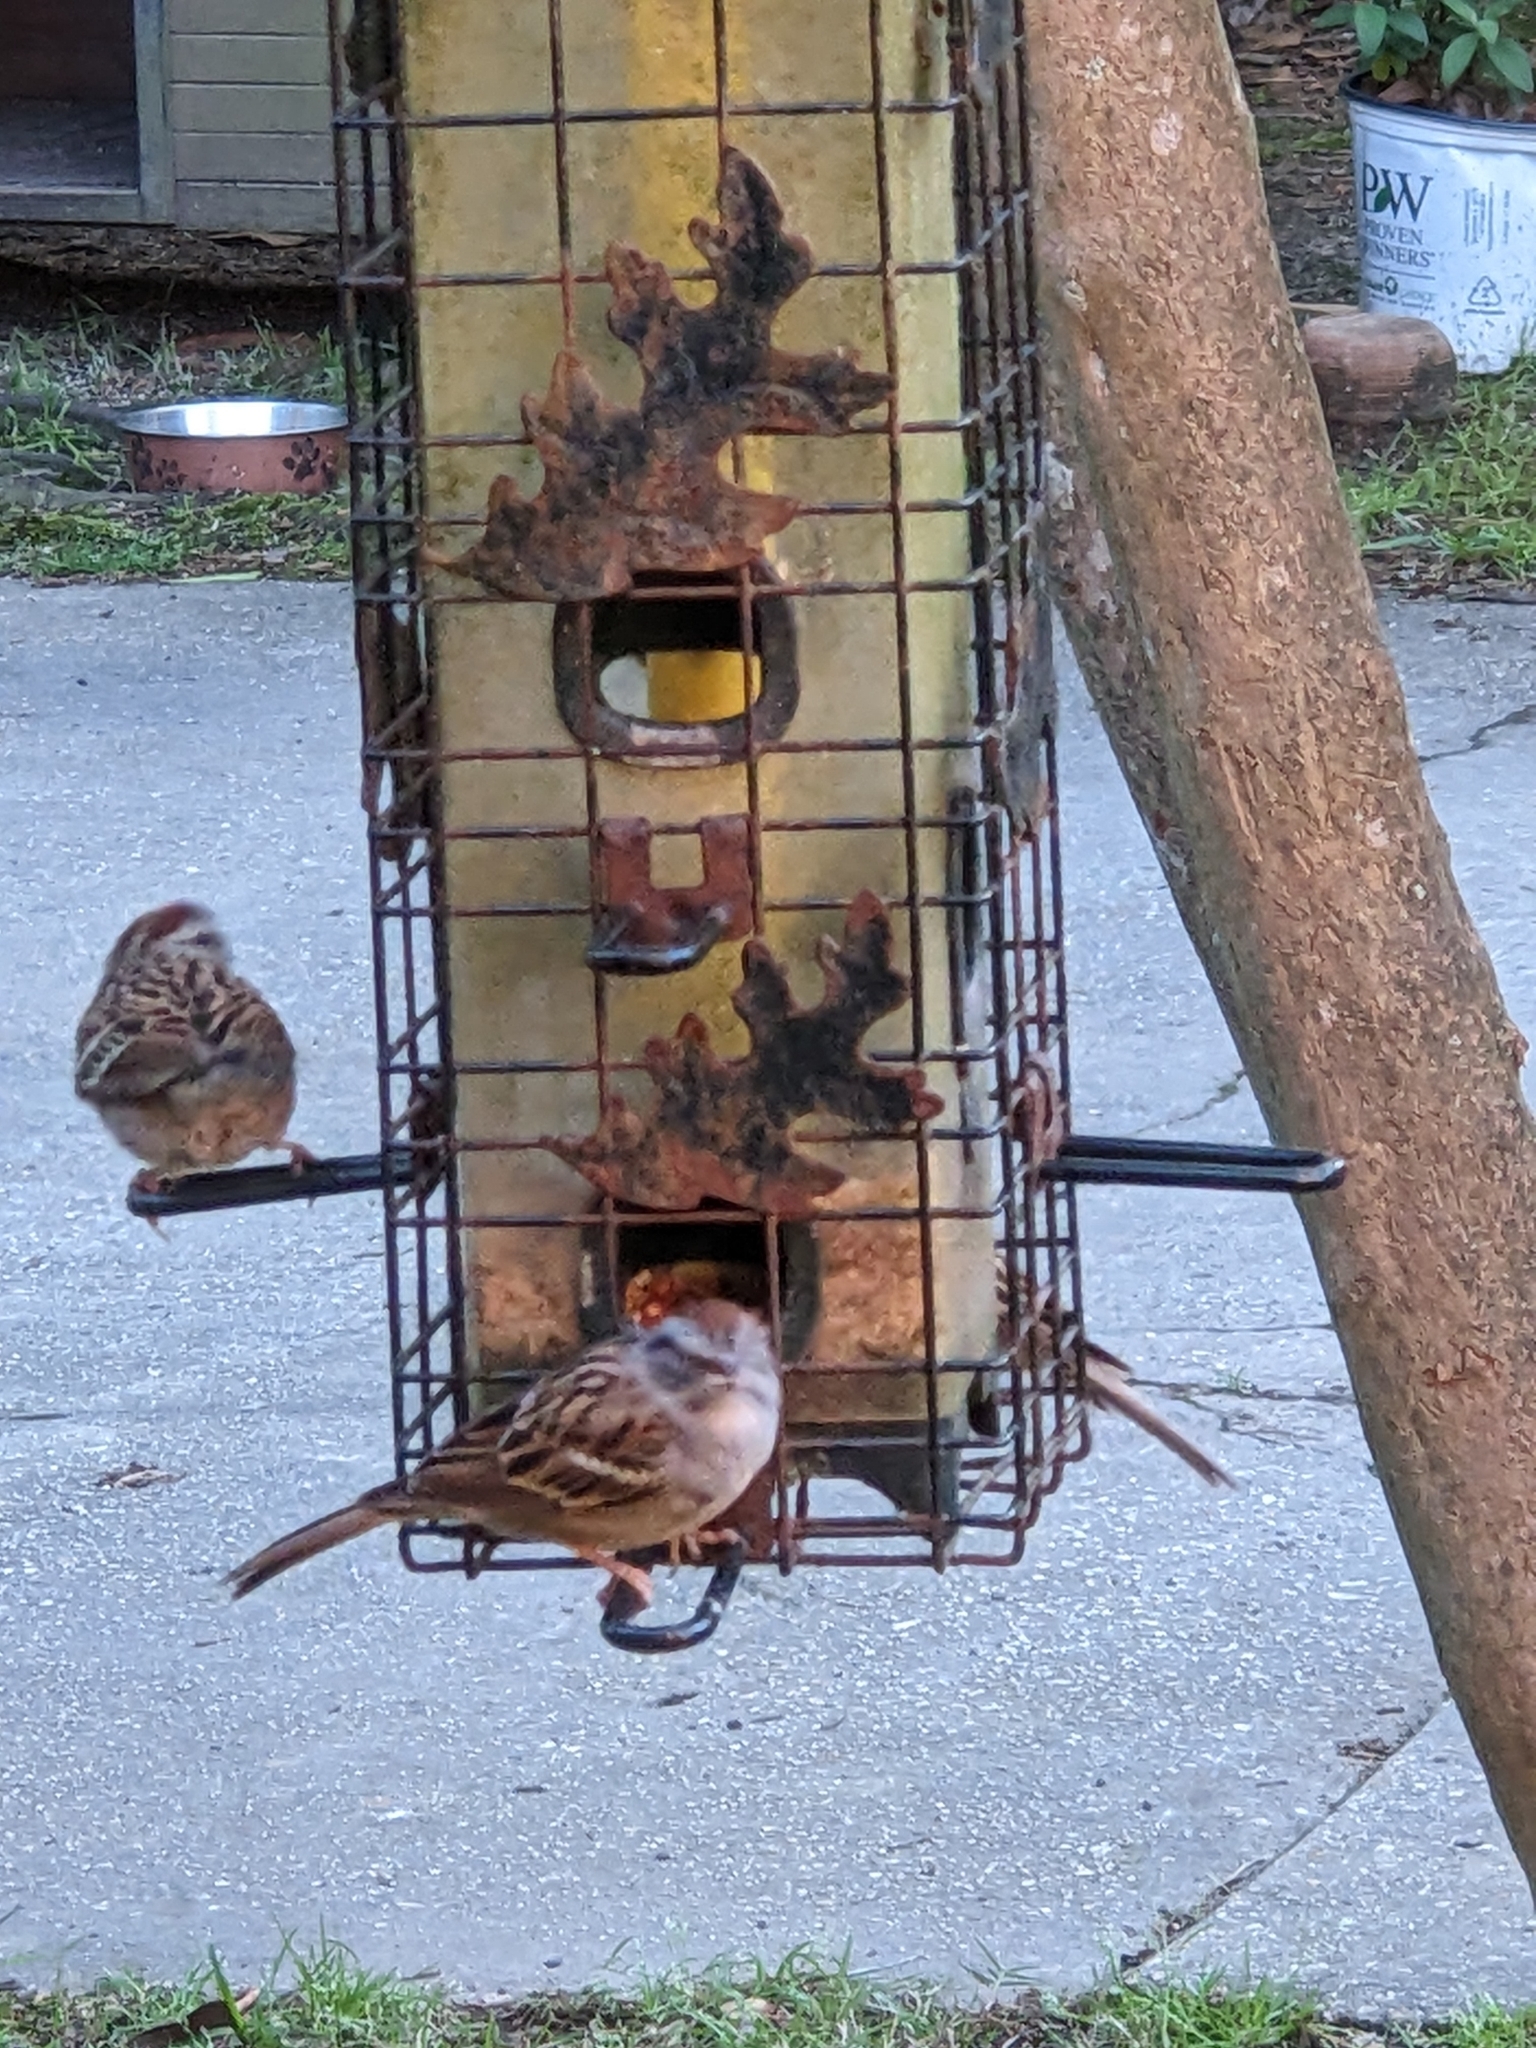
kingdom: Animalia
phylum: Chordata
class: Aves
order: Passeriformes
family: Passerellidae
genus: Spizella
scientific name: Spizella passerina
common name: Chipping sparrow
